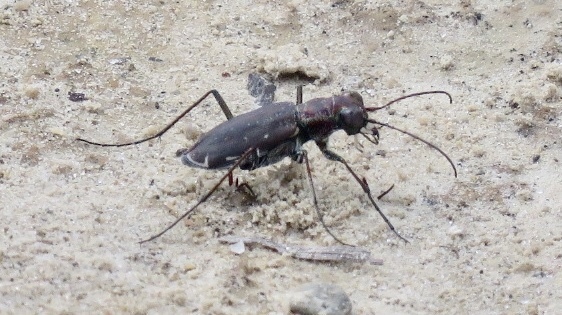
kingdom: Animalia
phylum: Arthropoda
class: Insecta
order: Coleoptera
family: Carabidae
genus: Cicindela
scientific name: Cicindela punctulata
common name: Punctured tiger beetle
